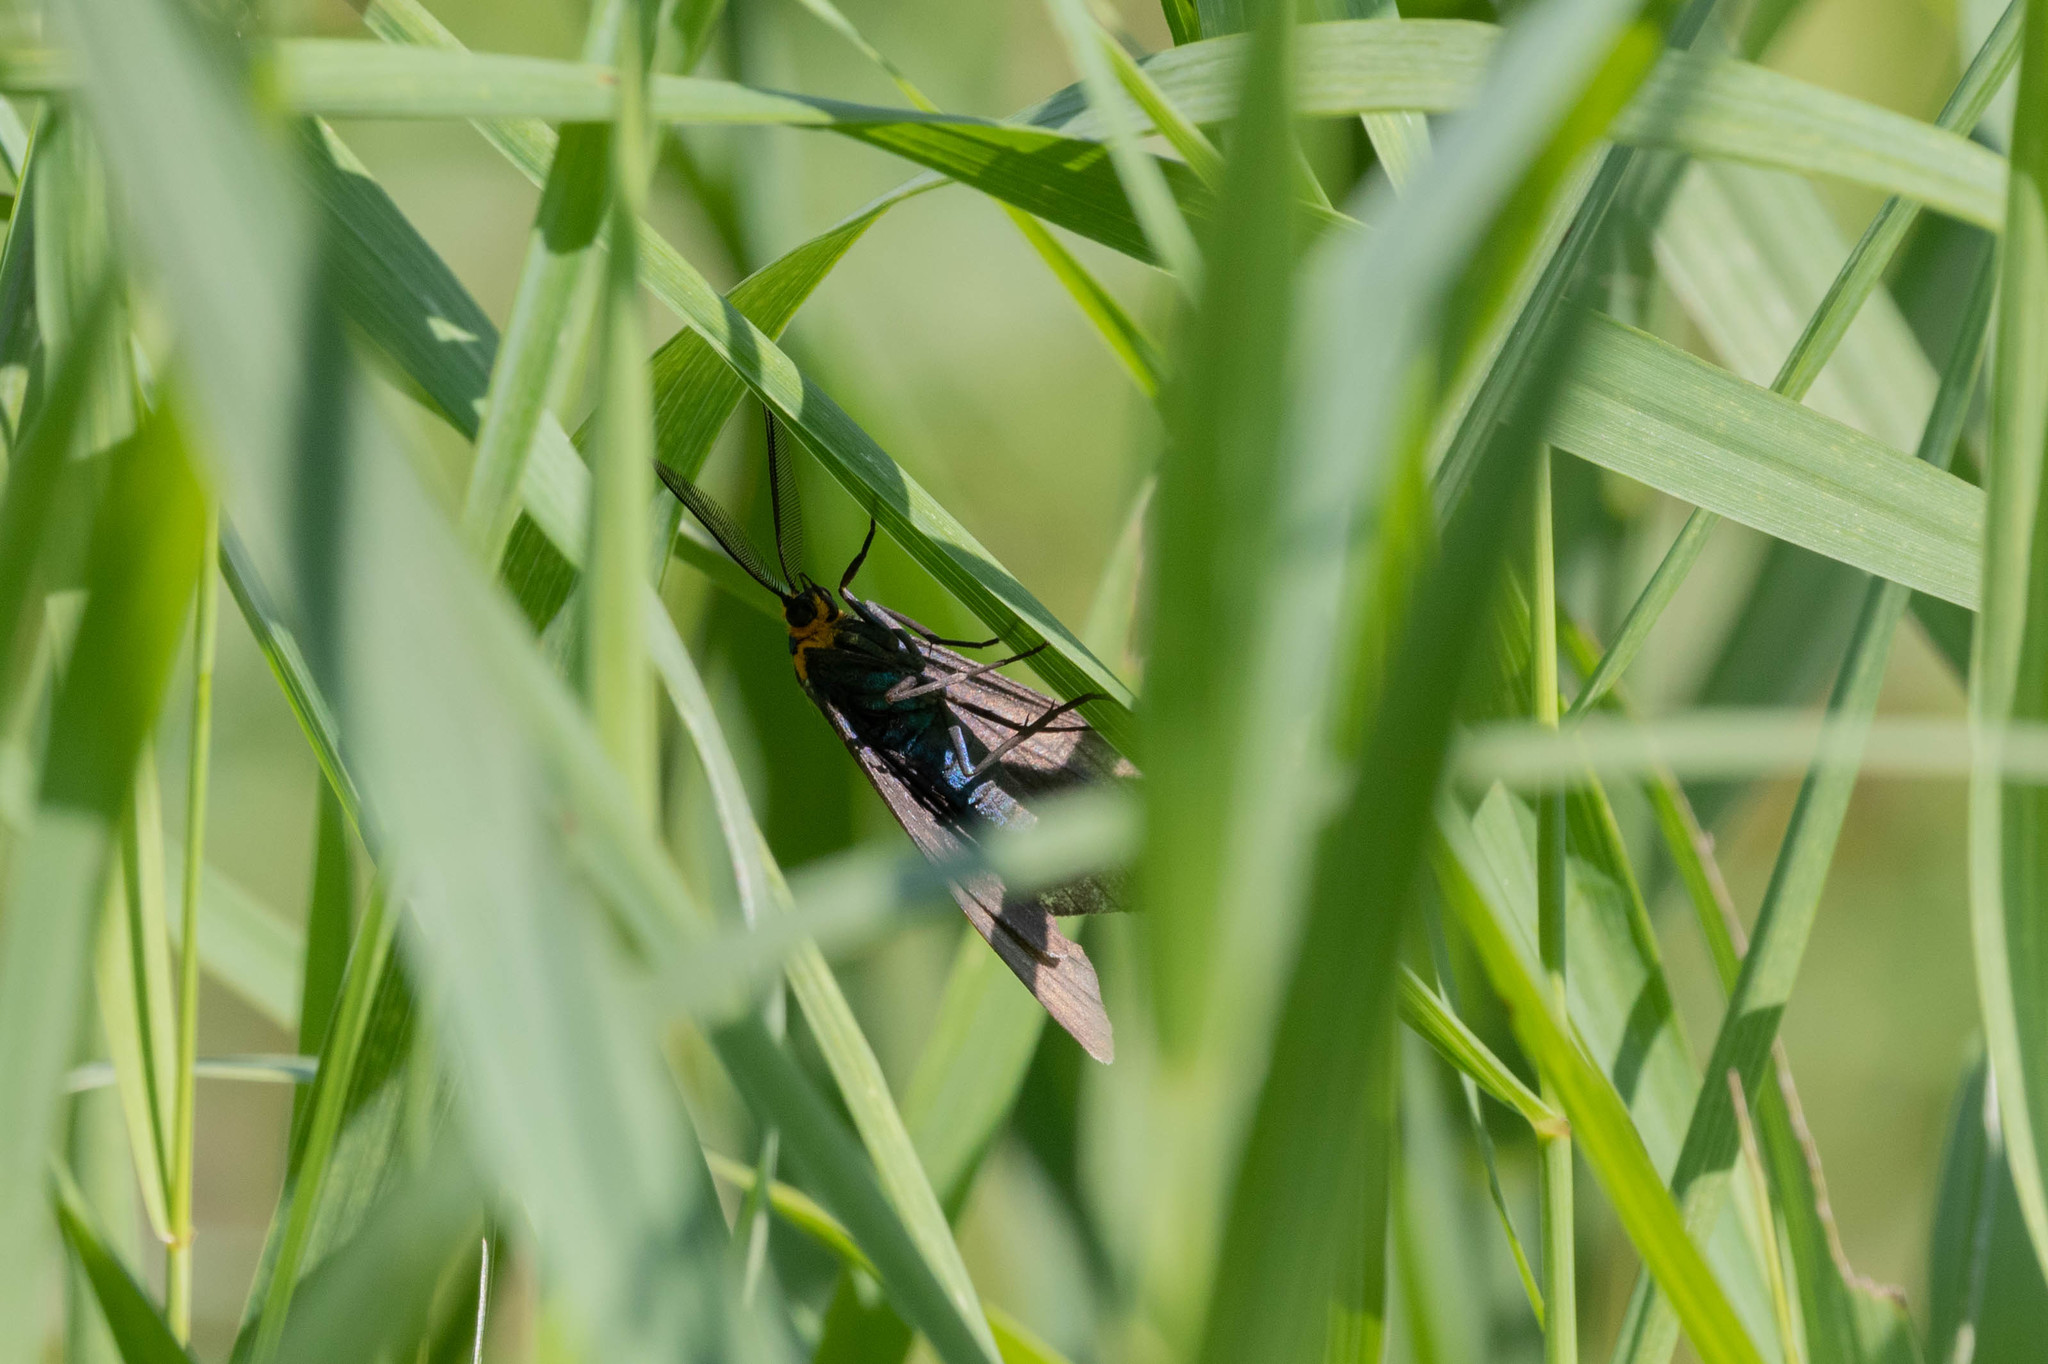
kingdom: Animalia
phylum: Arthropoda
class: Insecta
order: Lepidoptera
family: Erebidae
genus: Ctenucha
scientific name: Ctenucha virginica
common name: Virginia ctenucha moth
